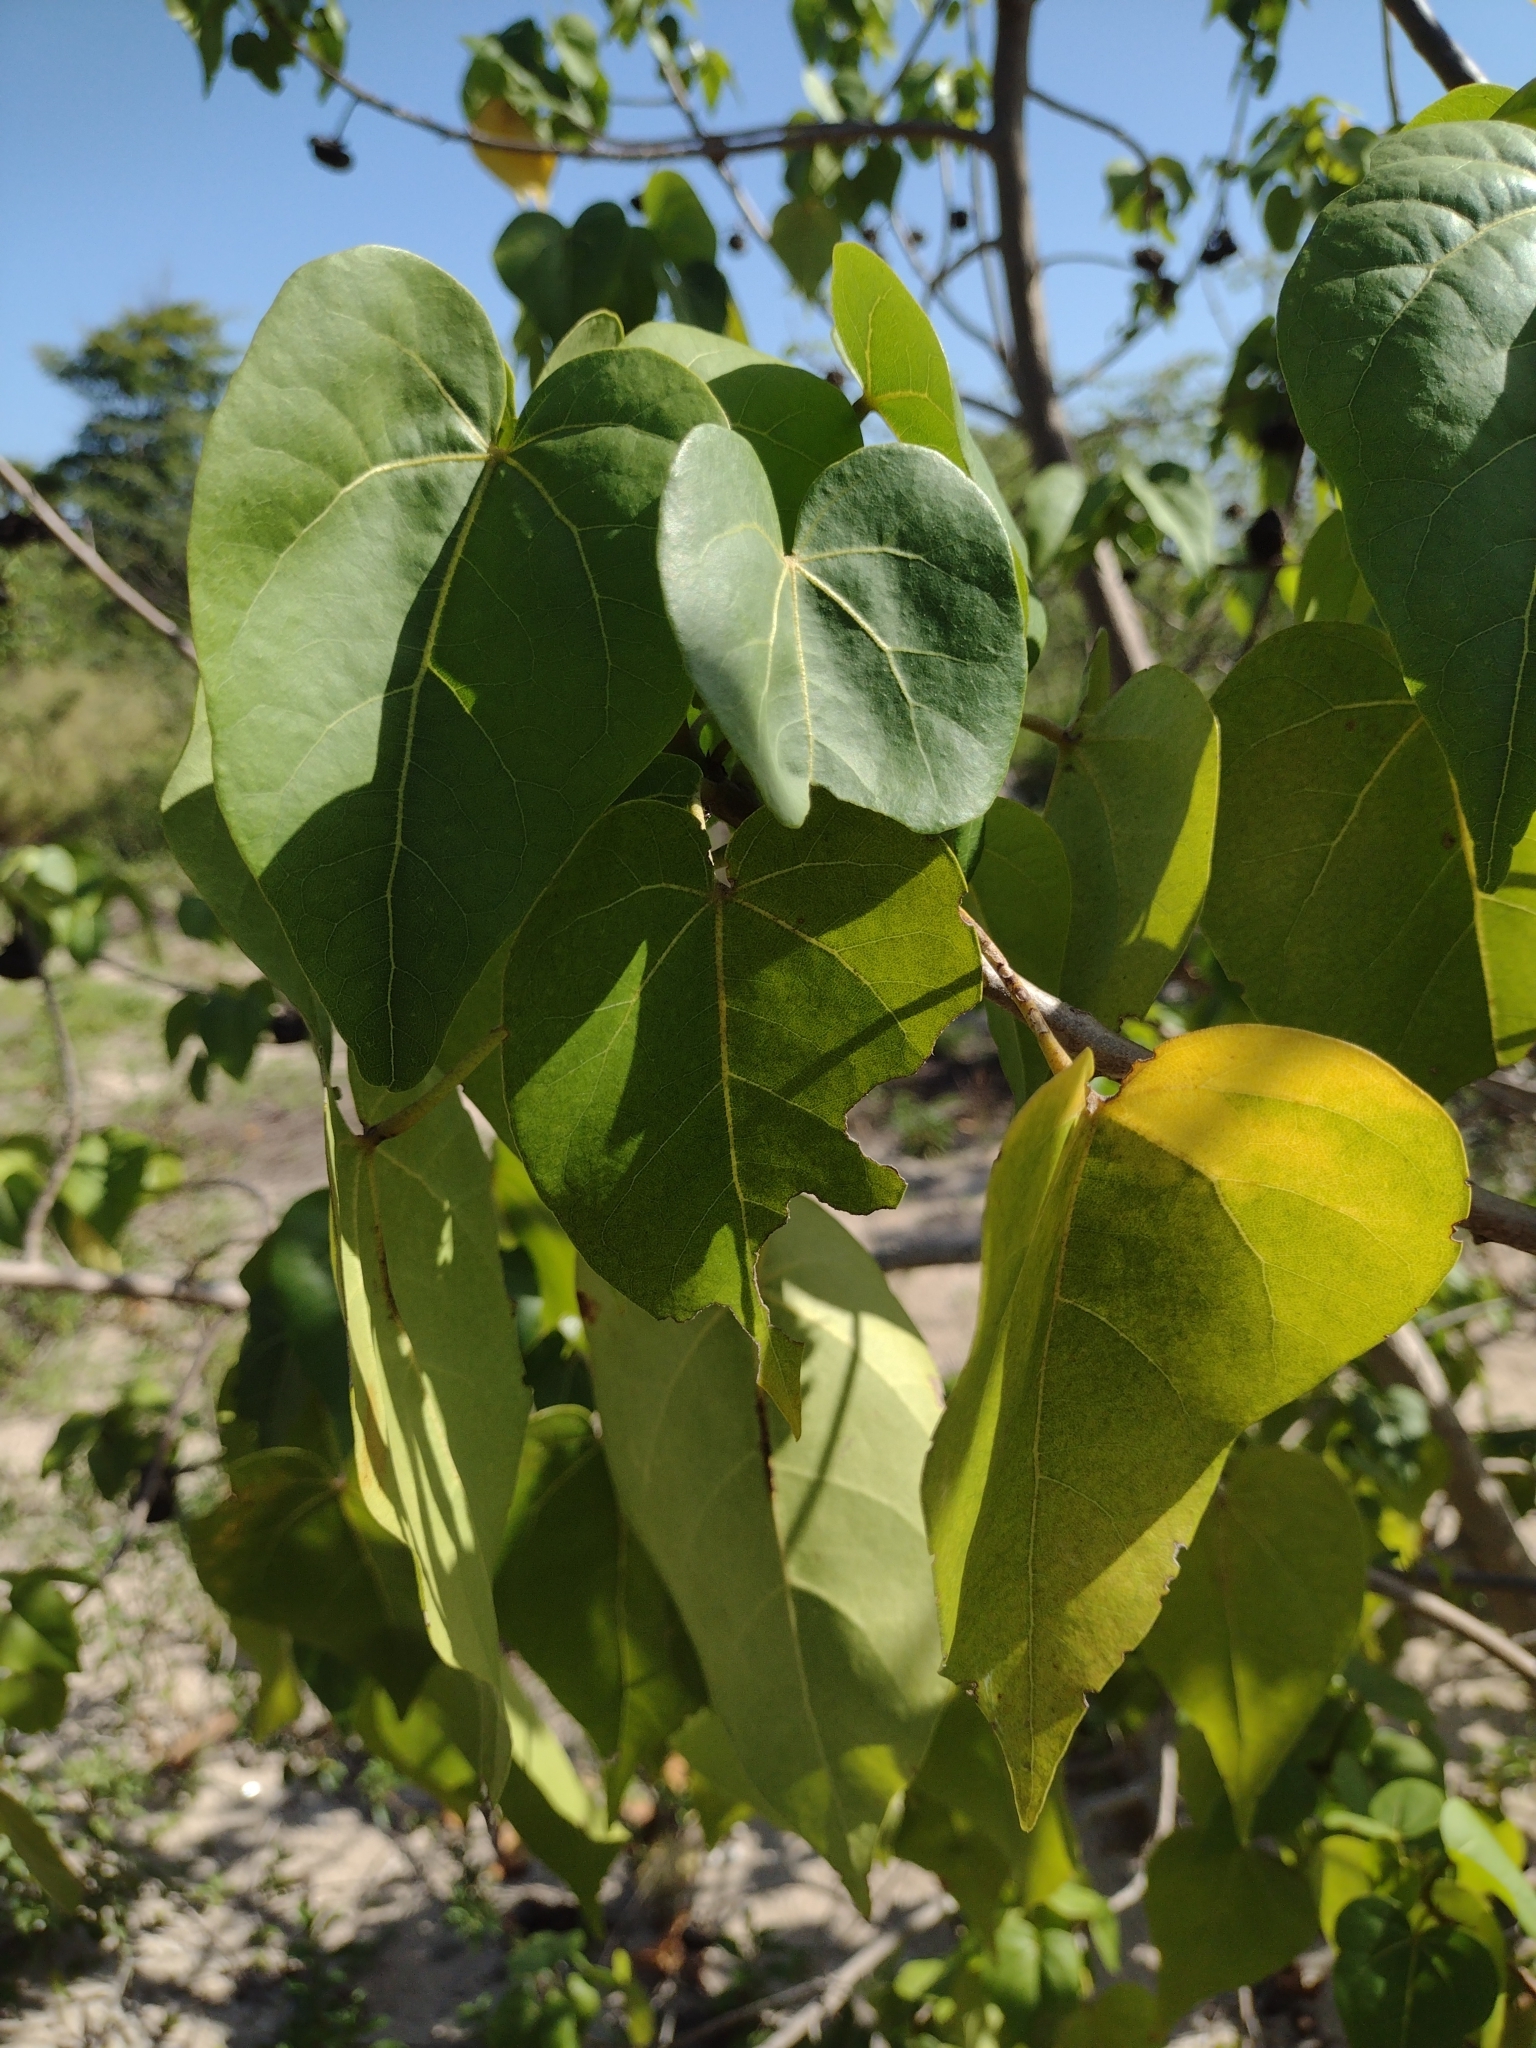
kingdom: Plantae
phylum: Tracheophyta
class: Magnoliopsida
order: Malvales
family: Malvaceae
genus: Thespesia
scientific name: Thespesia populnea
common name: Seaside mahoe
